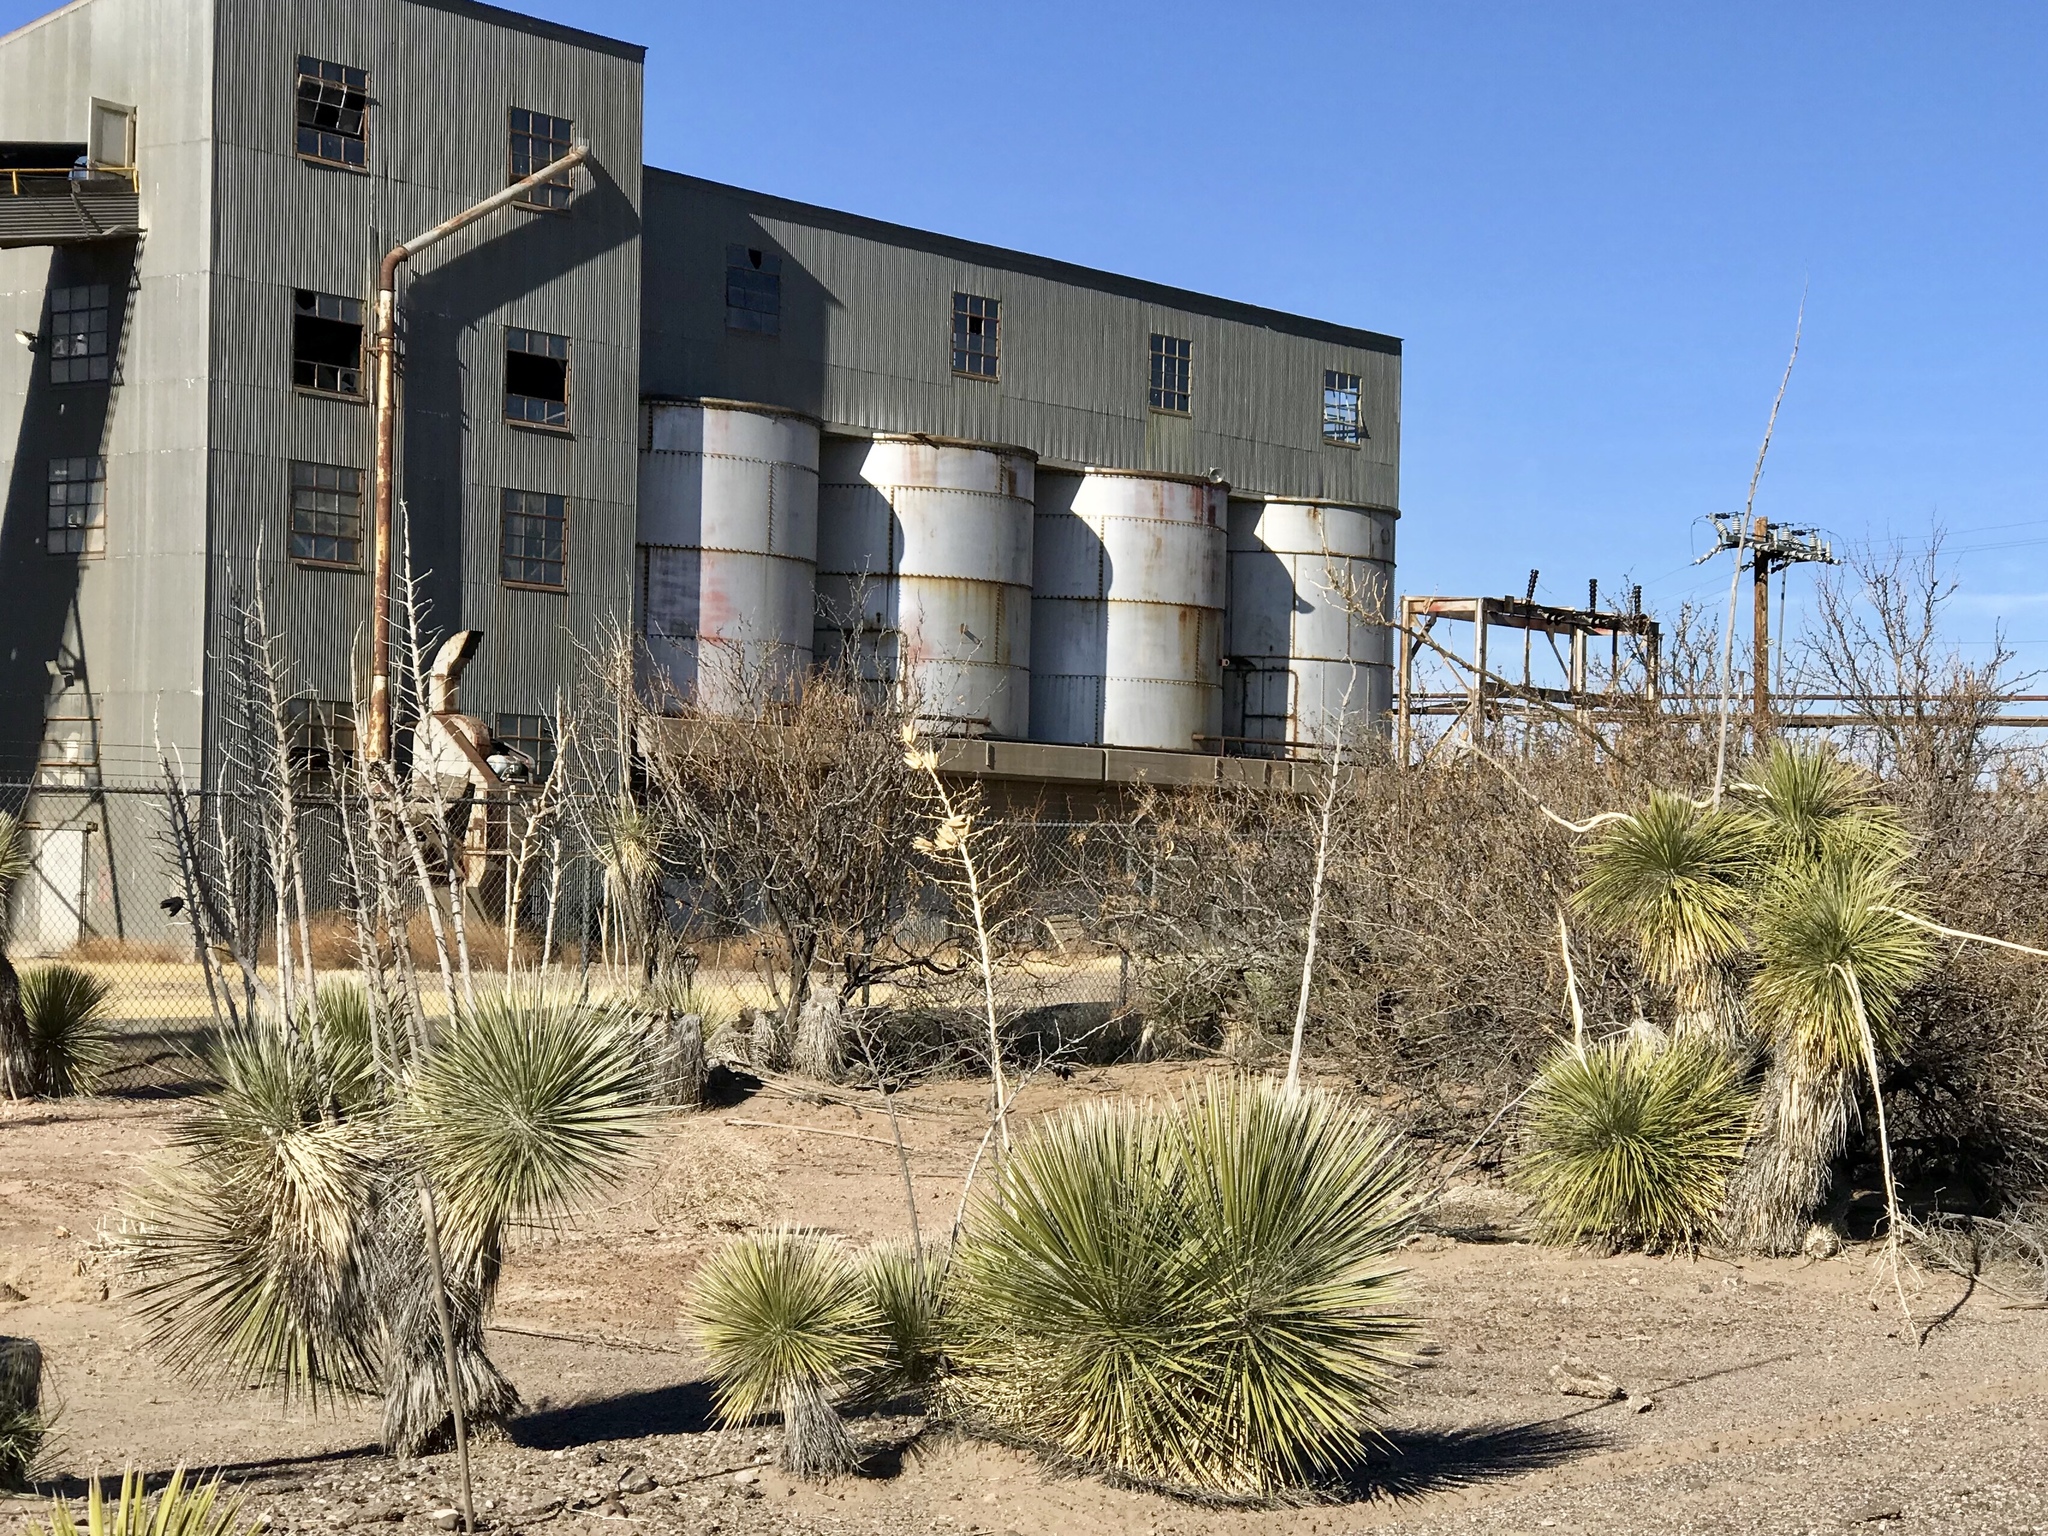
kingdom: Plantae
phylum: Tracheophyta
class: Liliopsida
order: Asparagales
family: Asparagaceae
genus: Yucca
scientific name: Yucca elata
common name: Palmella
